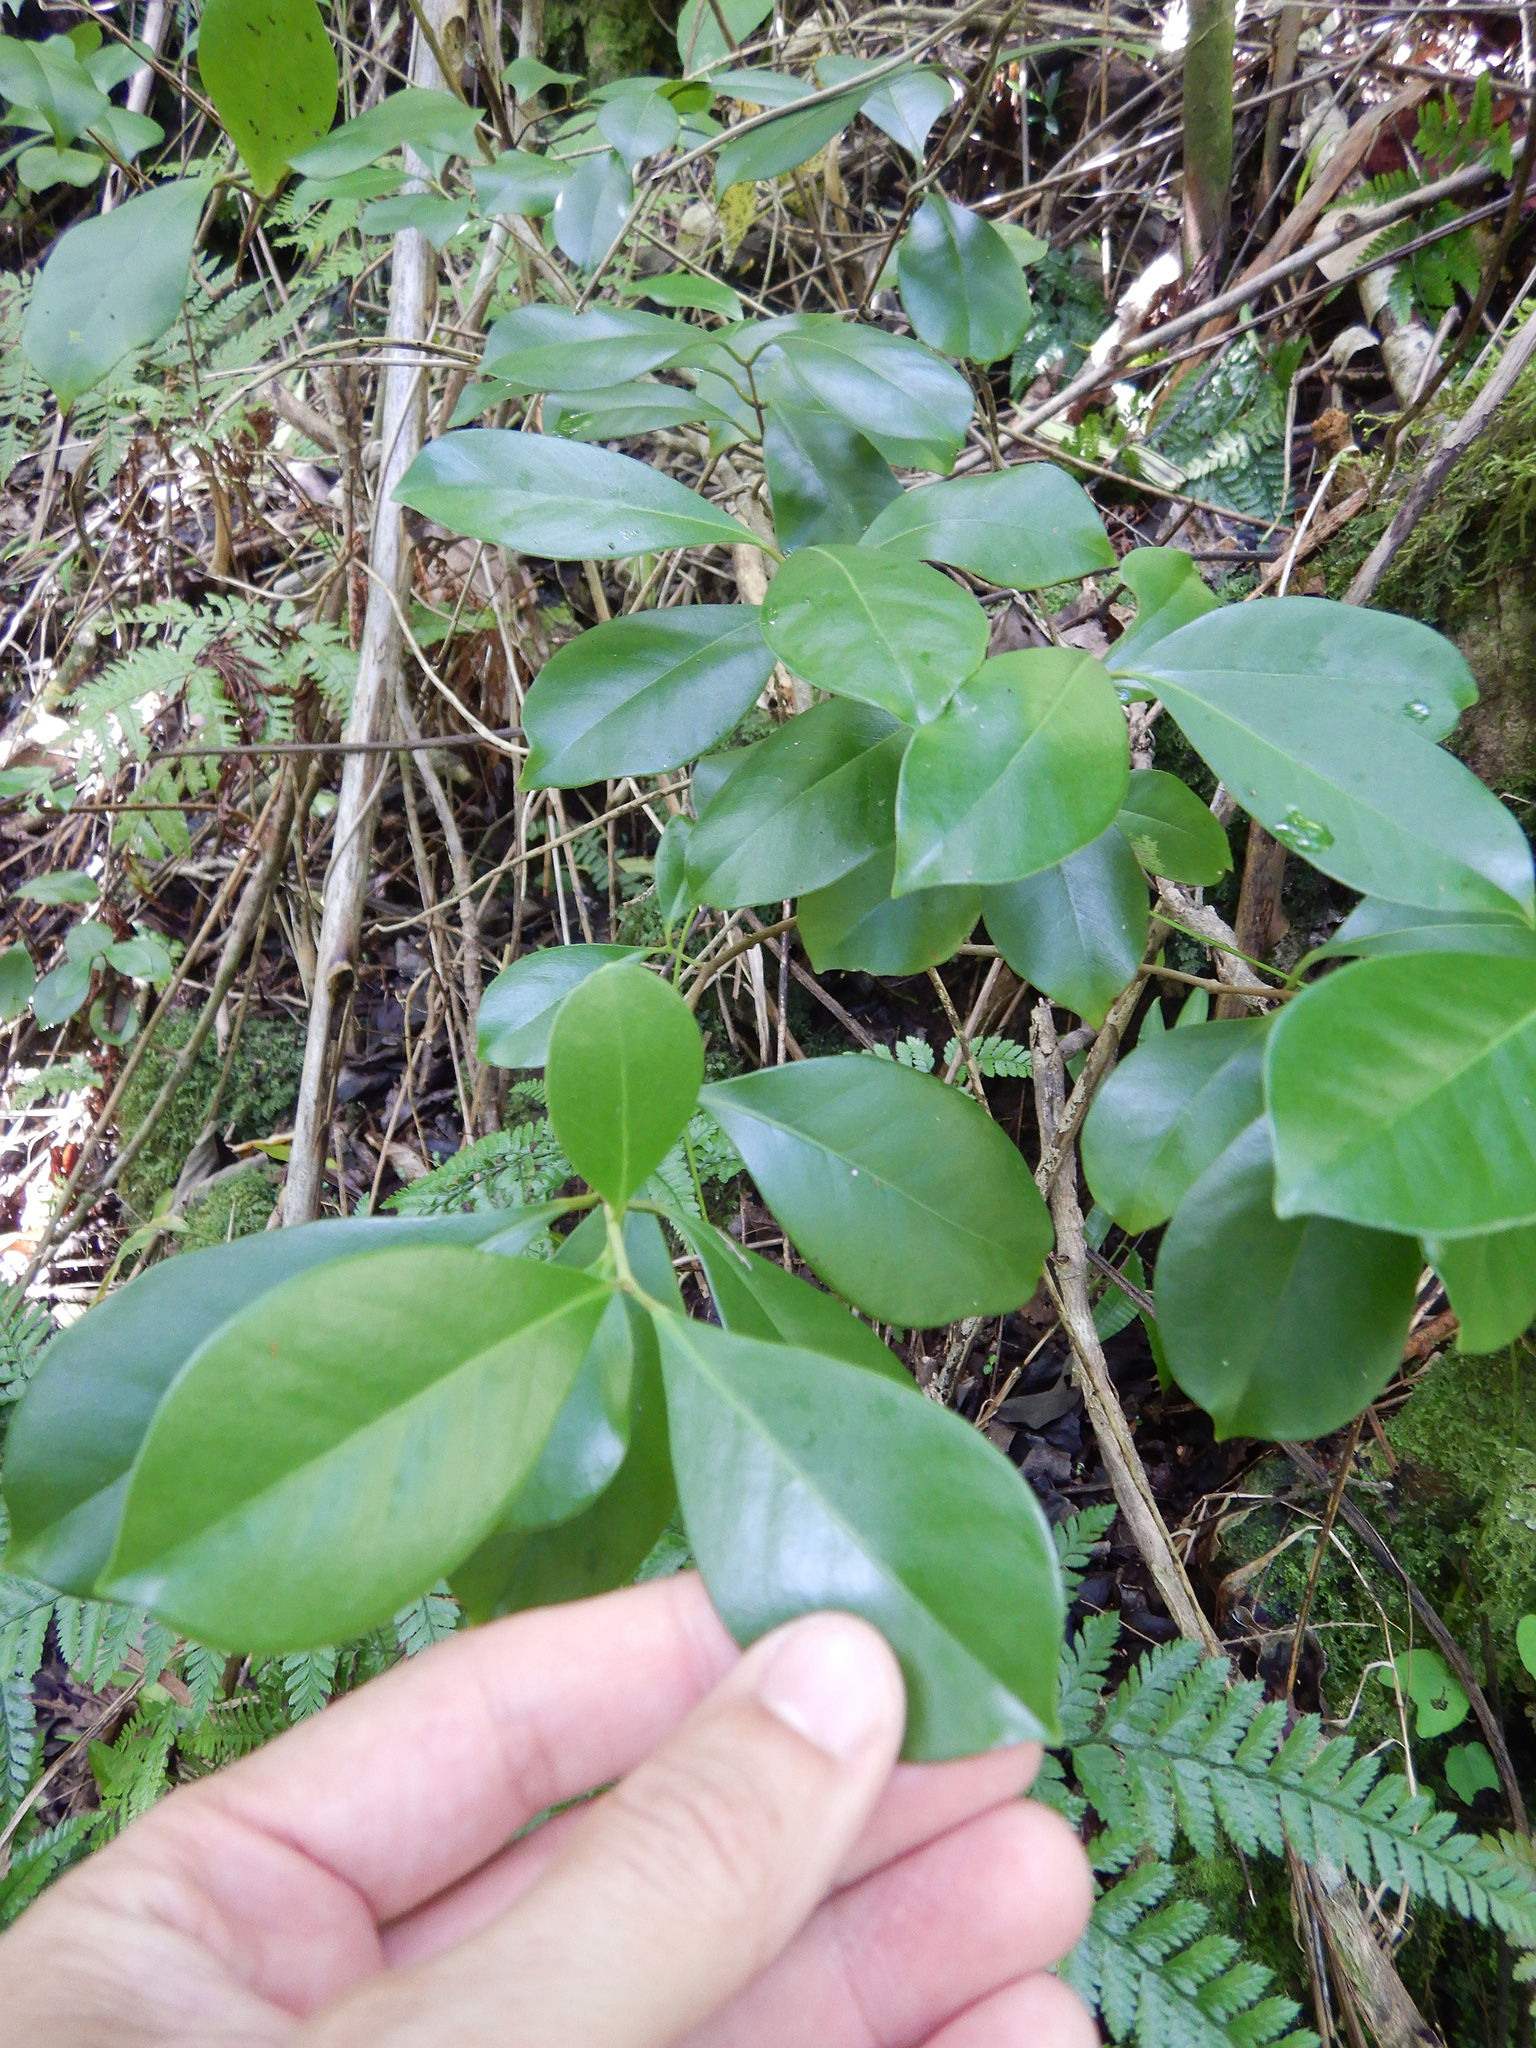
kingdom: Plantae
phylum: Tracheophyta
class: Magnoliopsida
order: Myrtales
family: Myrtaceae
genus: Psidium
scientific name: Psidium cattleianum
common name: Strawberry guava
